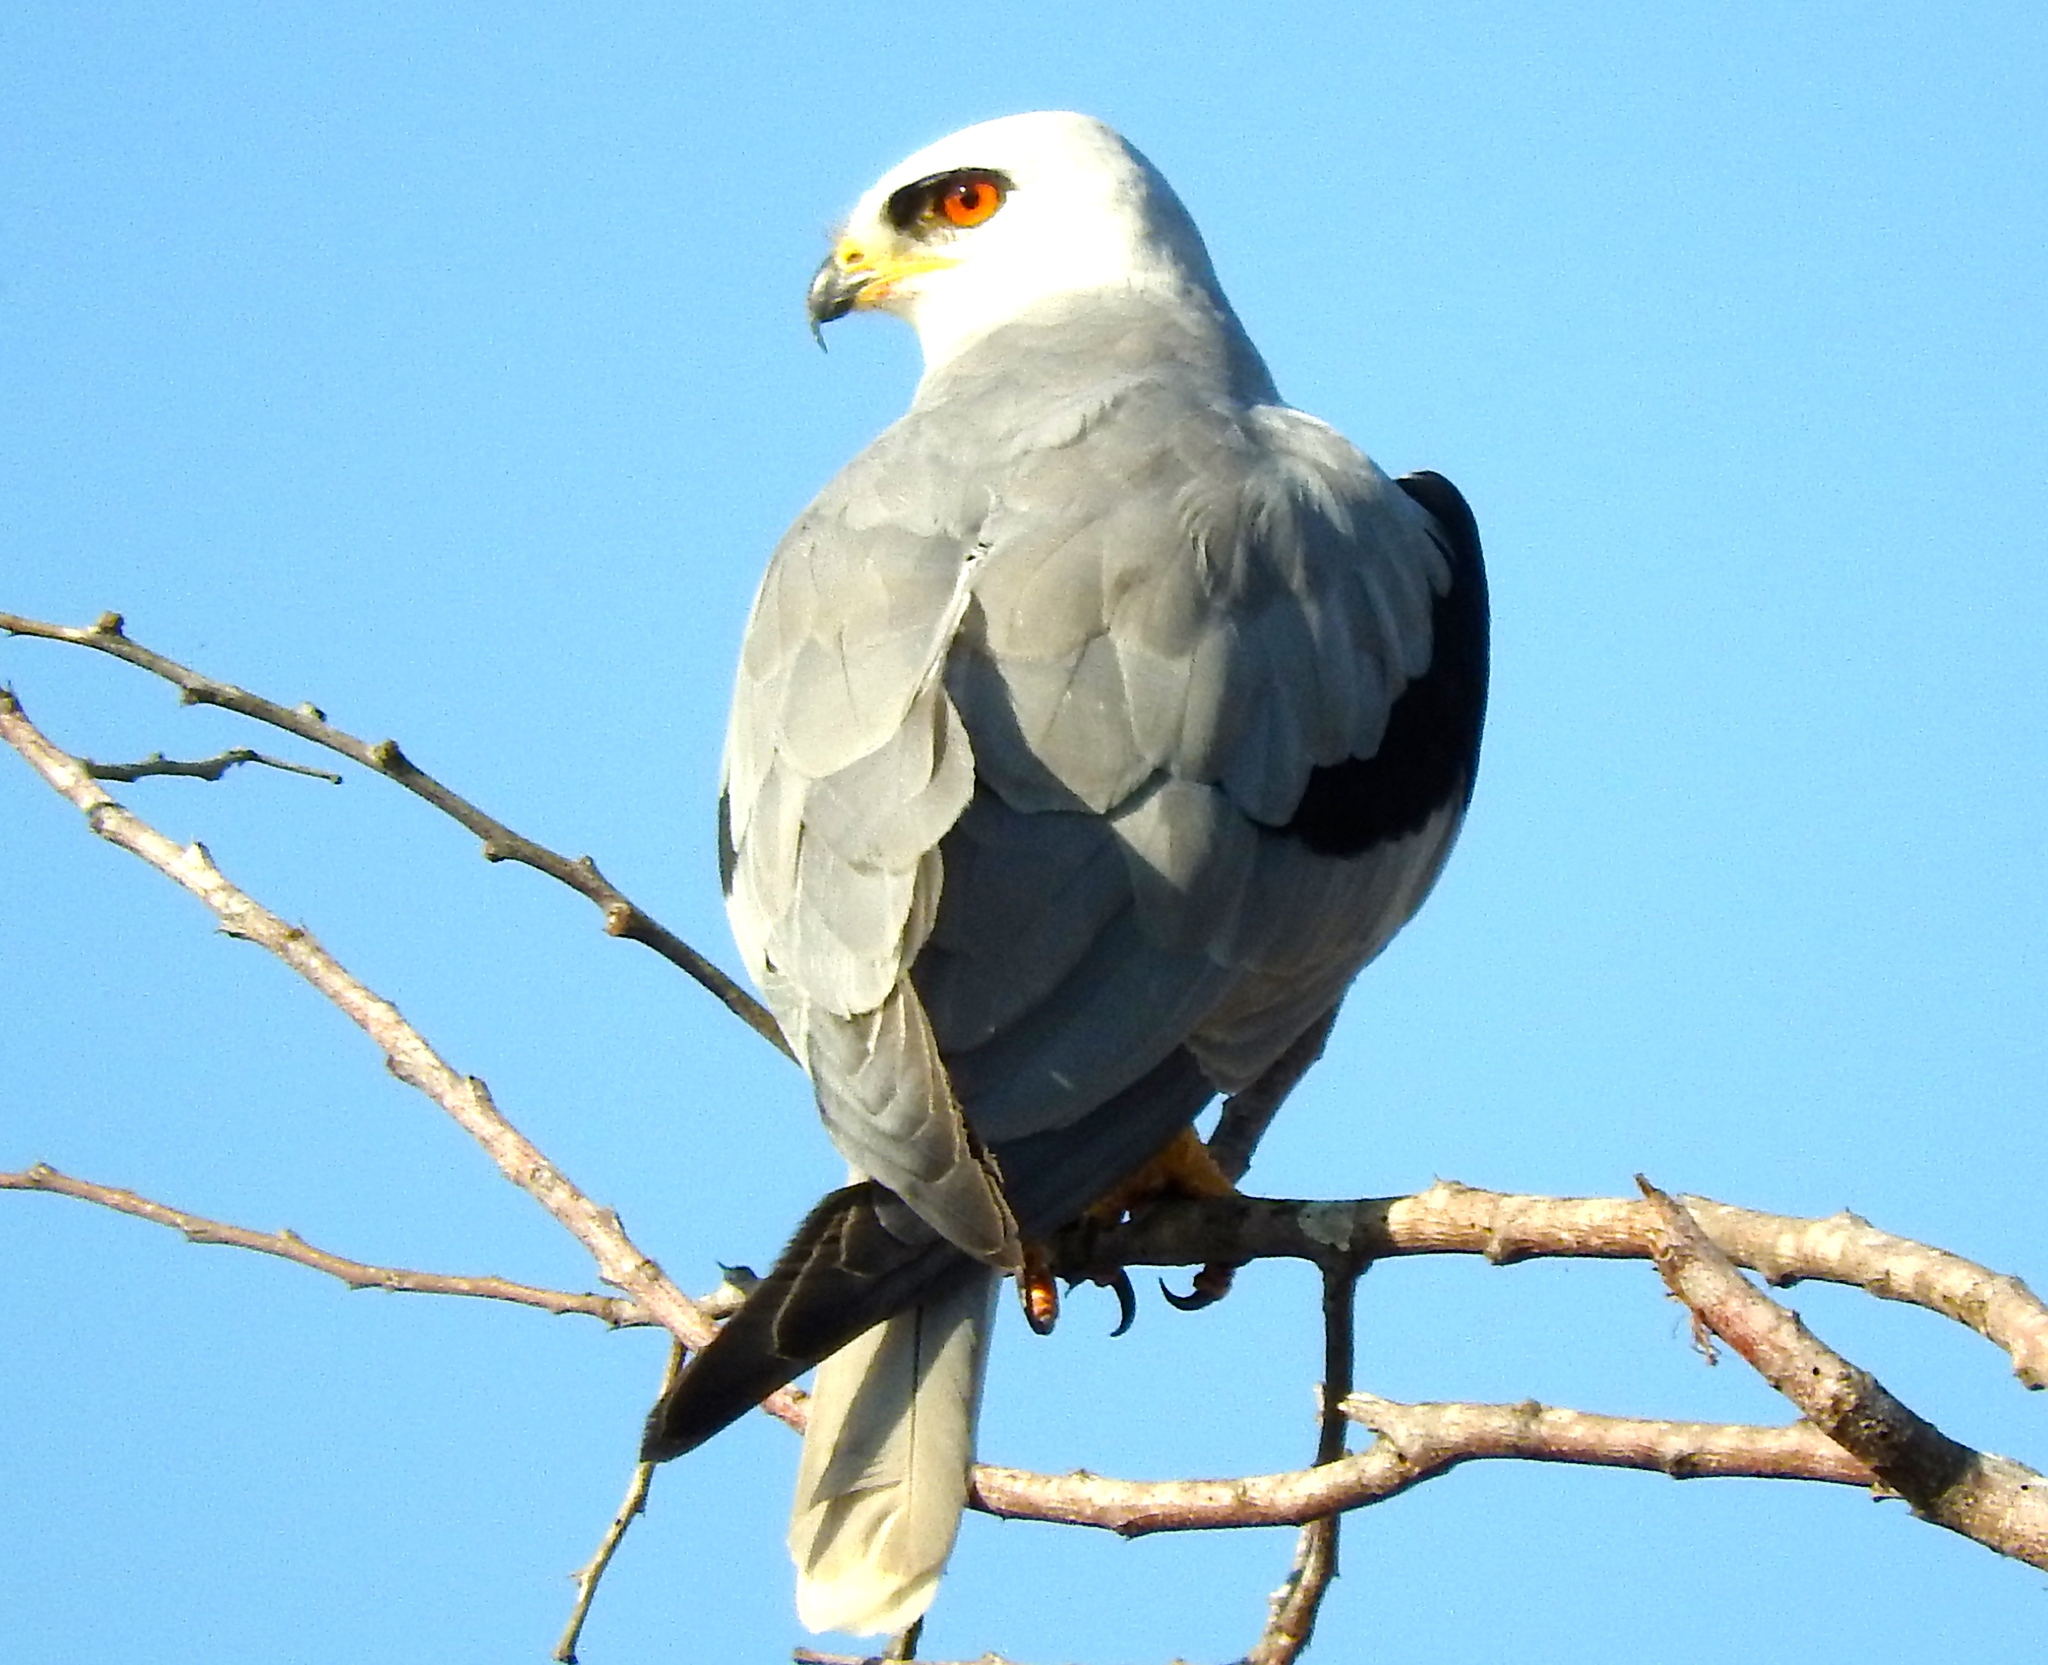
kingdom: Animalia
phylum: Chordata
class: Aves
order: Accipitriformes
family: Accipitridae
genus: Elanus
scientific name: Elanus leucurus
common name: White-tailed kite
